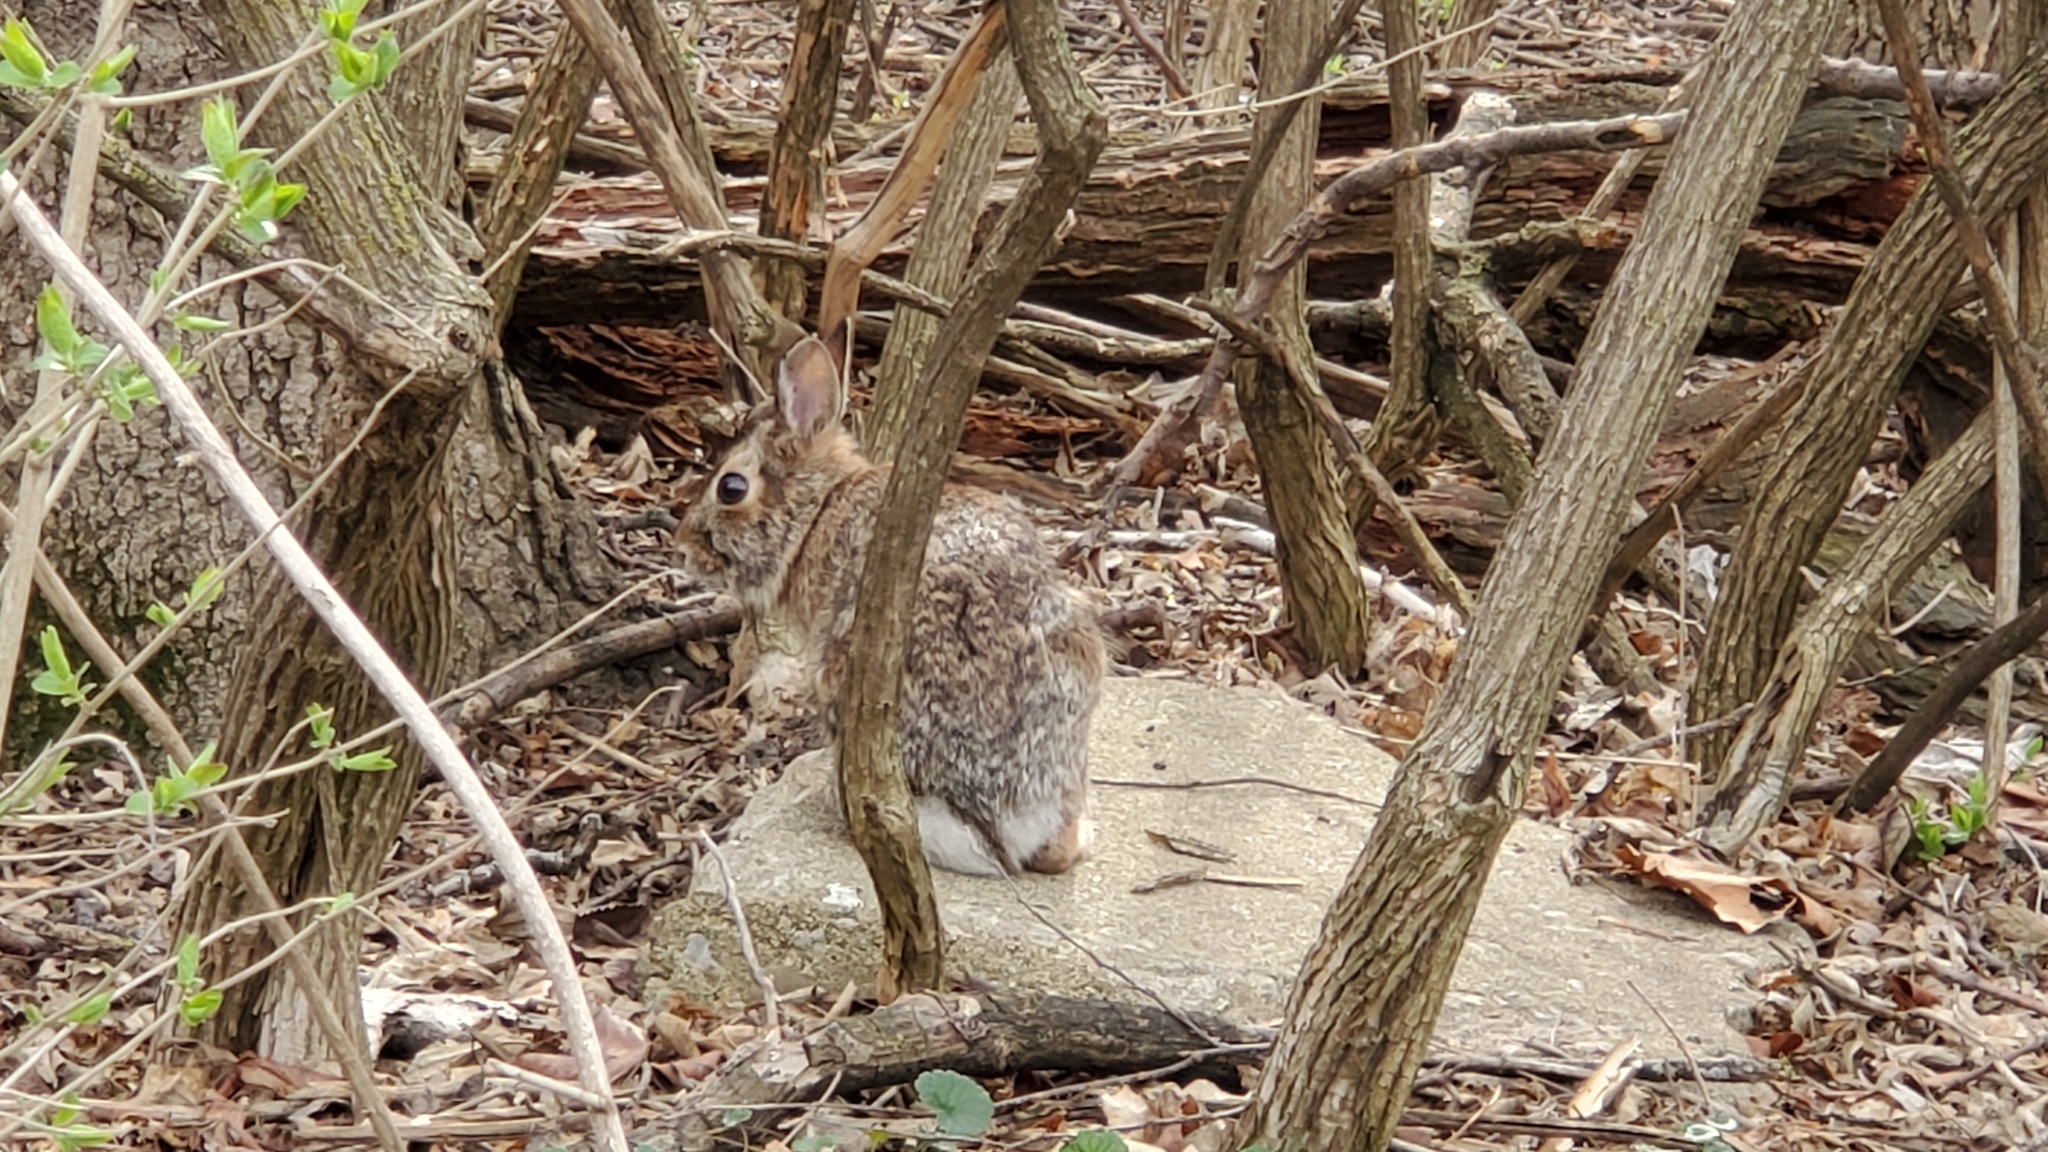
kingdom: Animalia
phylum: Chordata
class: Mammalia
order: Lagomorpha
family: Leporidae
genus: Sylvilagus
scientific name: Sylvilagus floridanus
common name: Eastern cottontail
